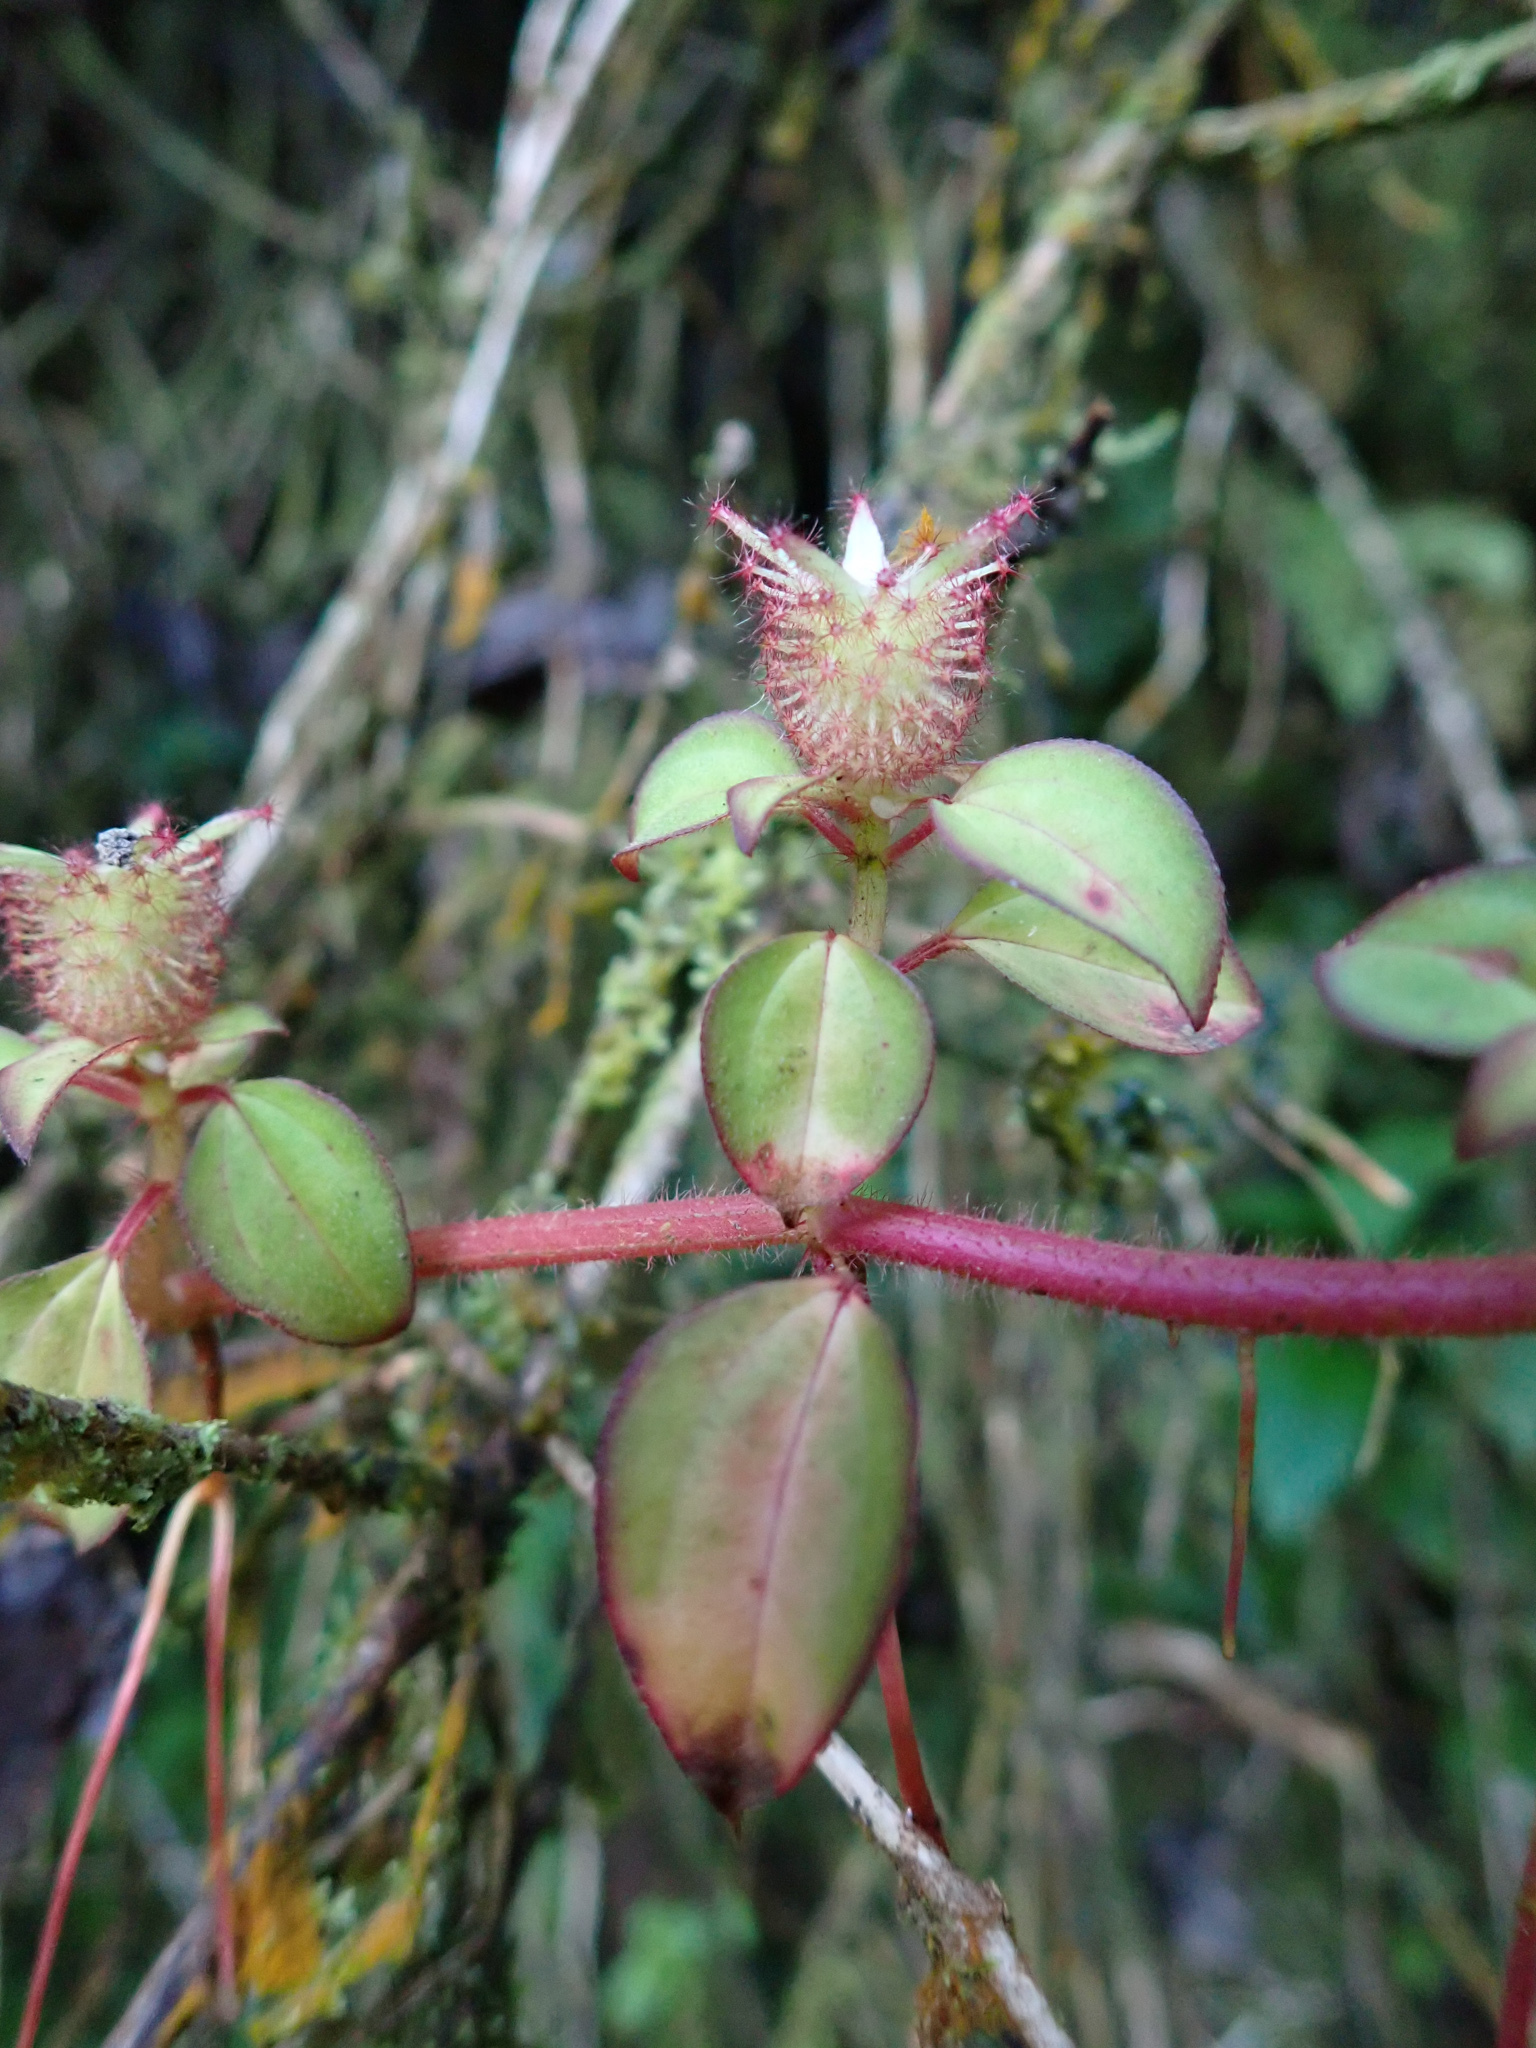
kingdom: Plantae
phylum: Tracheophyta
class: Magnoliopsida
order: Myrtales
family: Melastomataceae
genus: Heterotis
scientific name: Heterotis rotundifolia
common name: Pinklady
